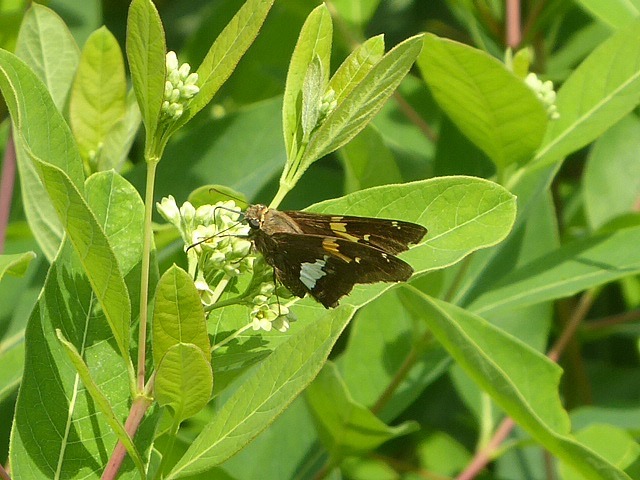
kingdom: Animalia
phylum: Arthropoda
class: Insecta
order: Lepidoptera
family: Hesperiidae
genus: Epargyreus
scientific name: Epargyreus clarus
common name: Silver-spotted skipper
